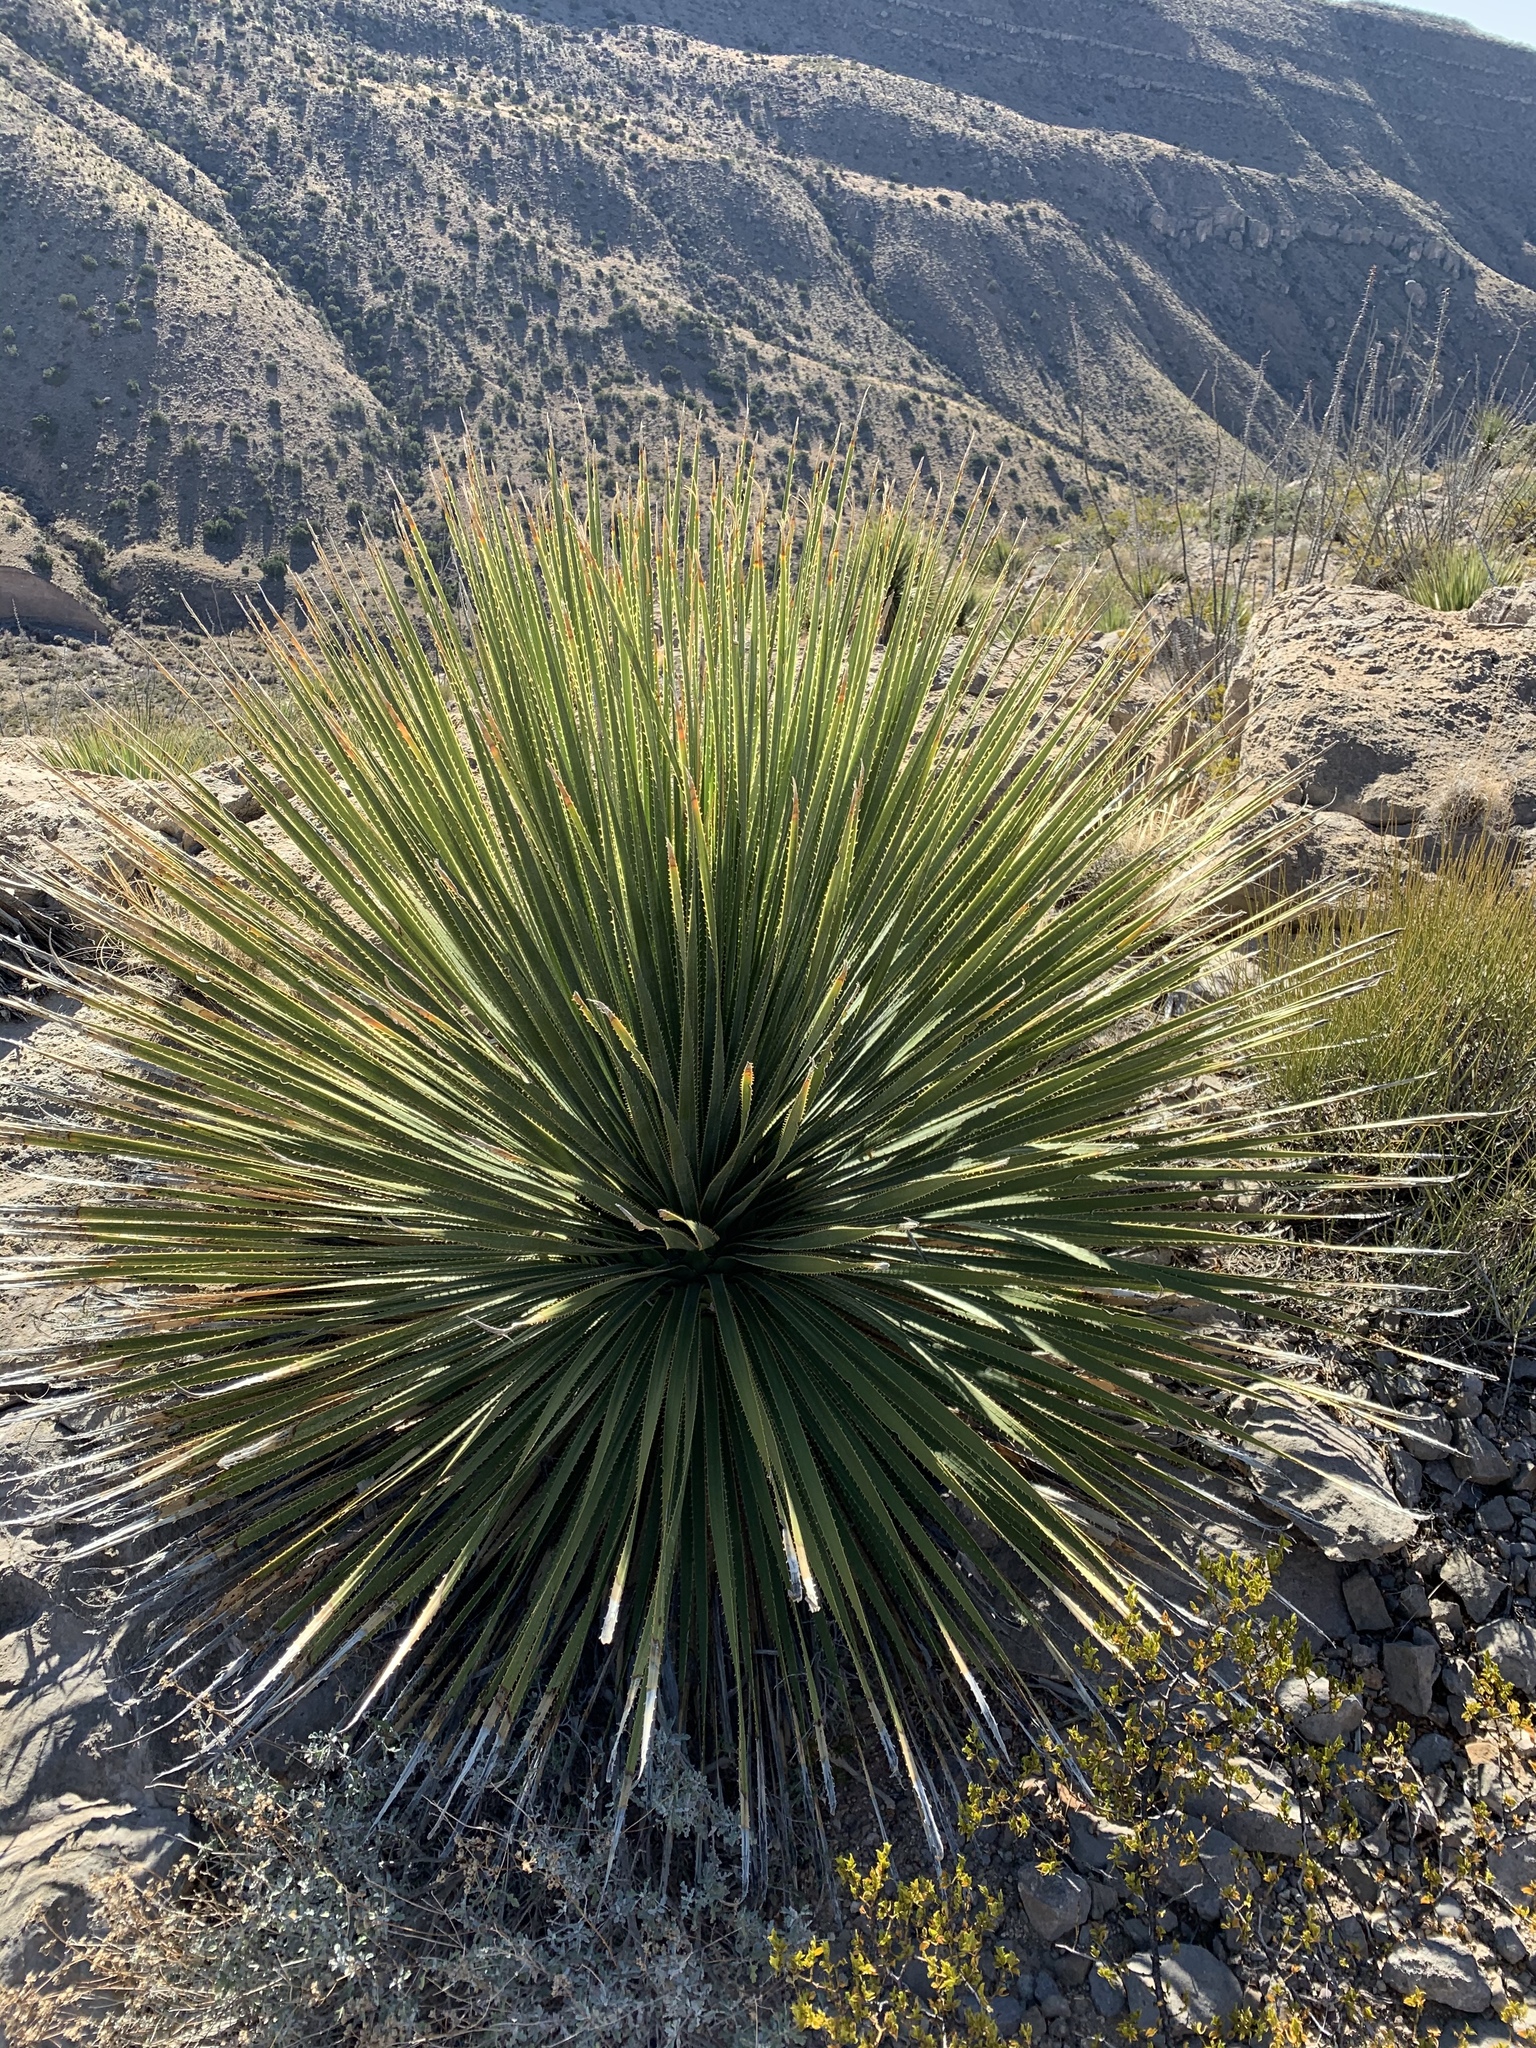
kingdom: Plantae
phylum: Tracheophyta
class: Liliopsida
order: Asparagales
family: Asparagaceae
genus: Dasylirion
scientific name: Dasylirion wheeleri
